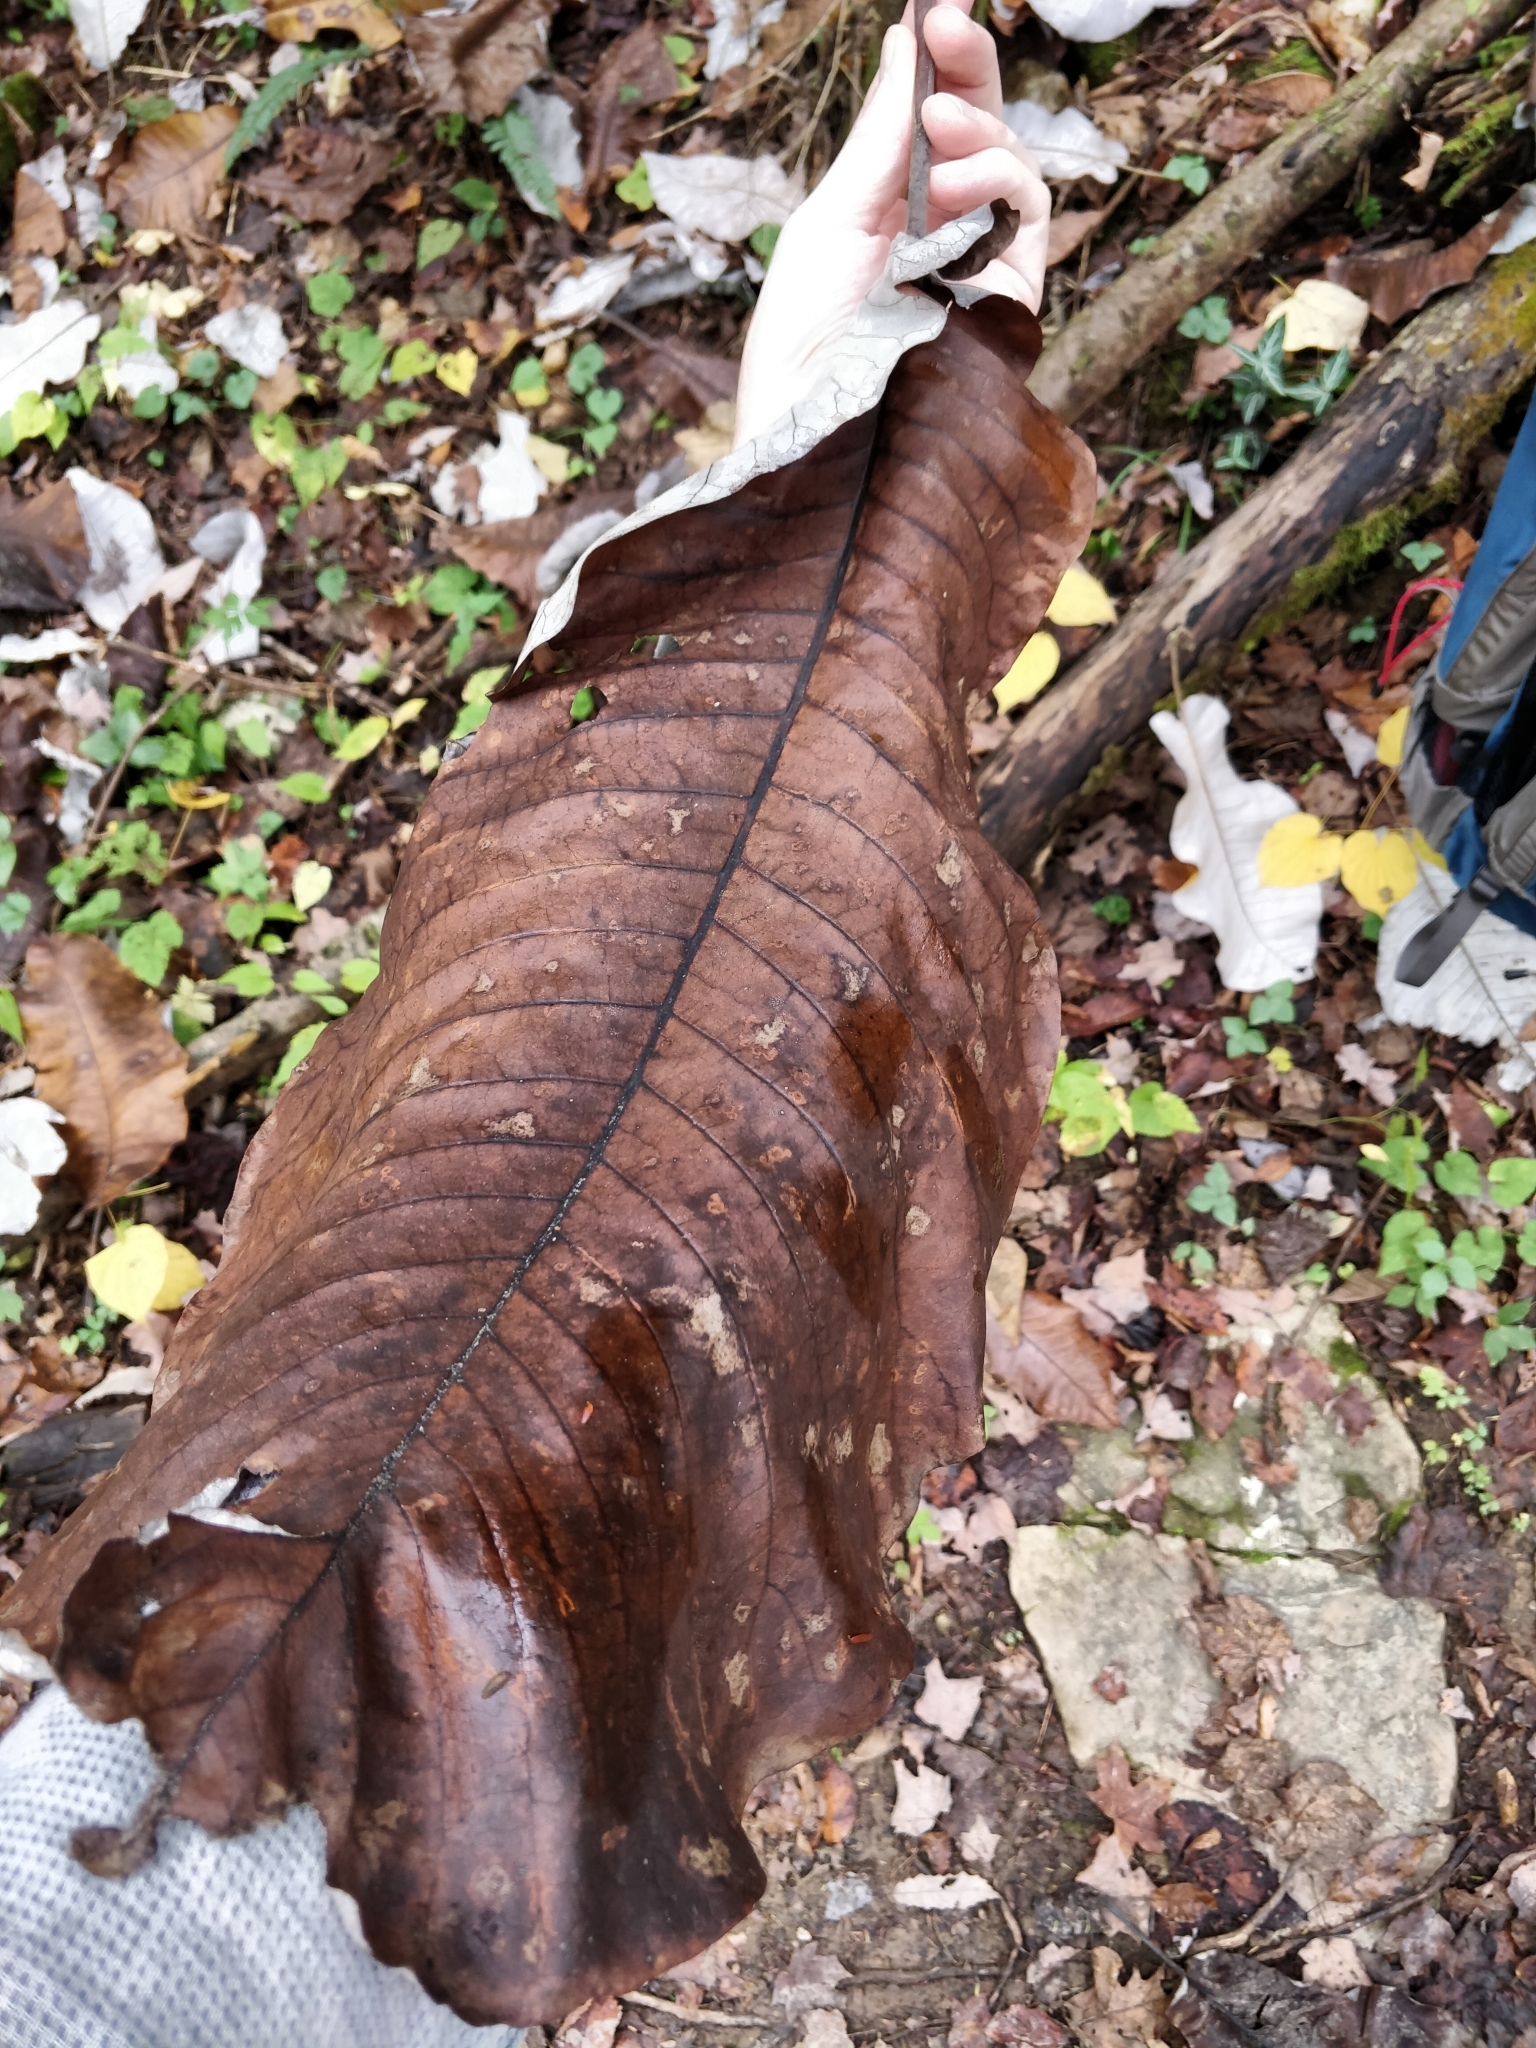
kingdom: Plantae
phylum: Tracheophyta
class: Magnoliopsida
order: Magnoliales
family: Magnoliaceae
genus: Magnolia
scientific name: Magnolia macrophylla
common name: Big-leaf magnolia
